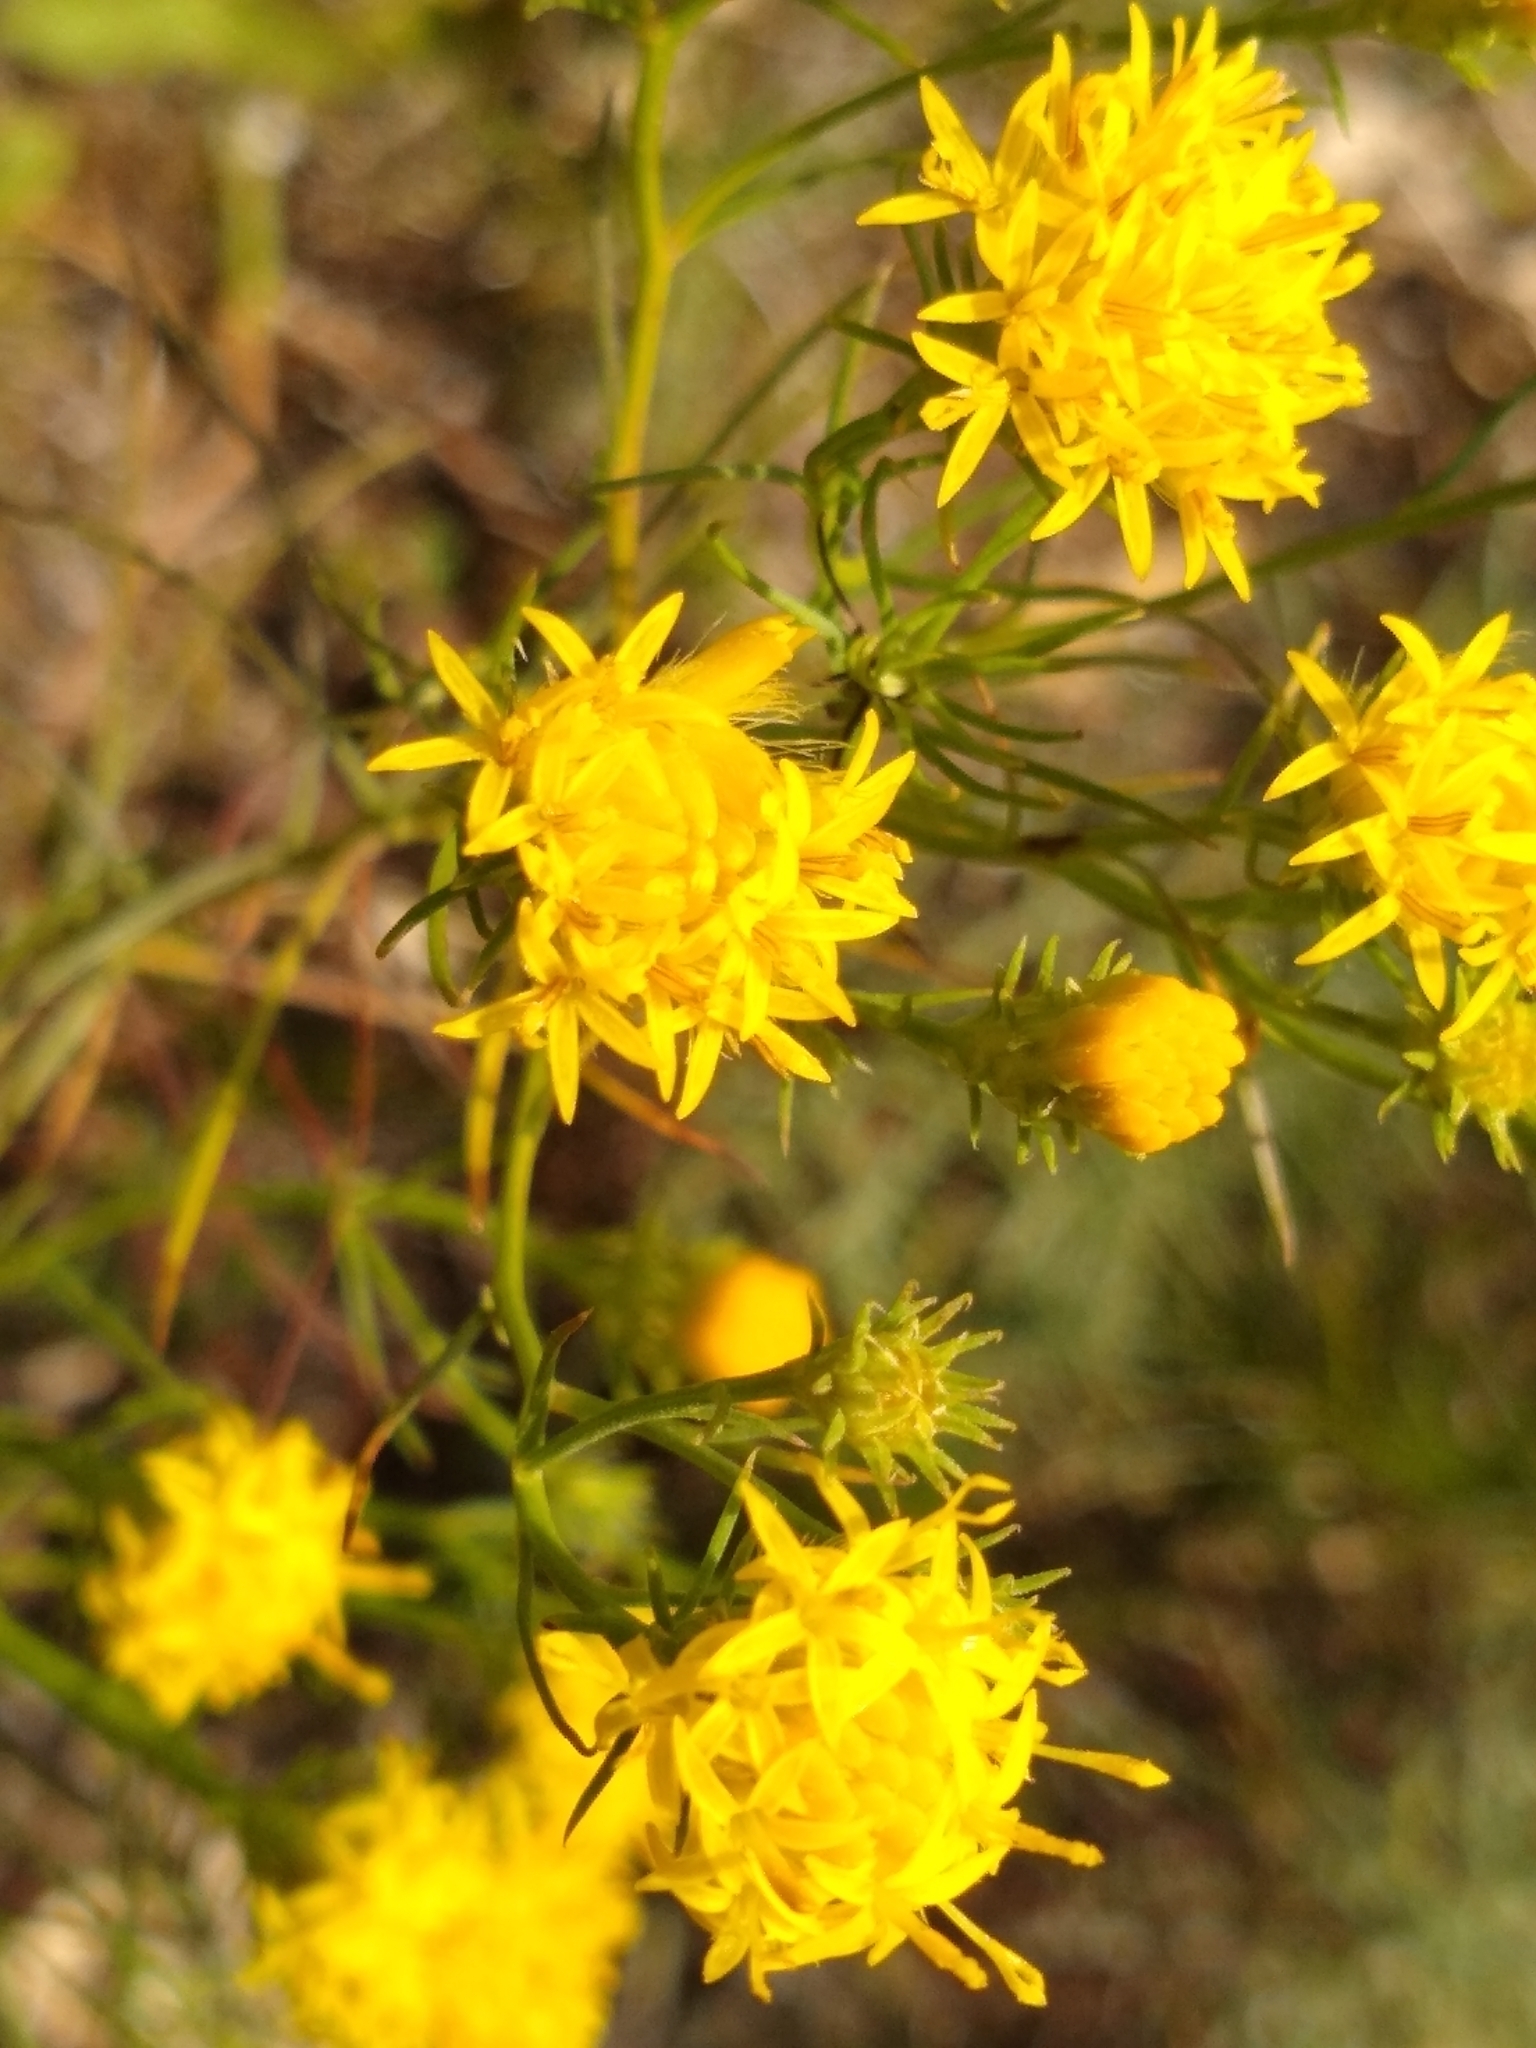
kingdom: Plantae
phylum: Tracheophyta
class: Magnoliopsida
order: Asterales
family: Asteraceae
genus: Galatella
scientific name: Galatella linosyris
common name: Goldilocks aster
